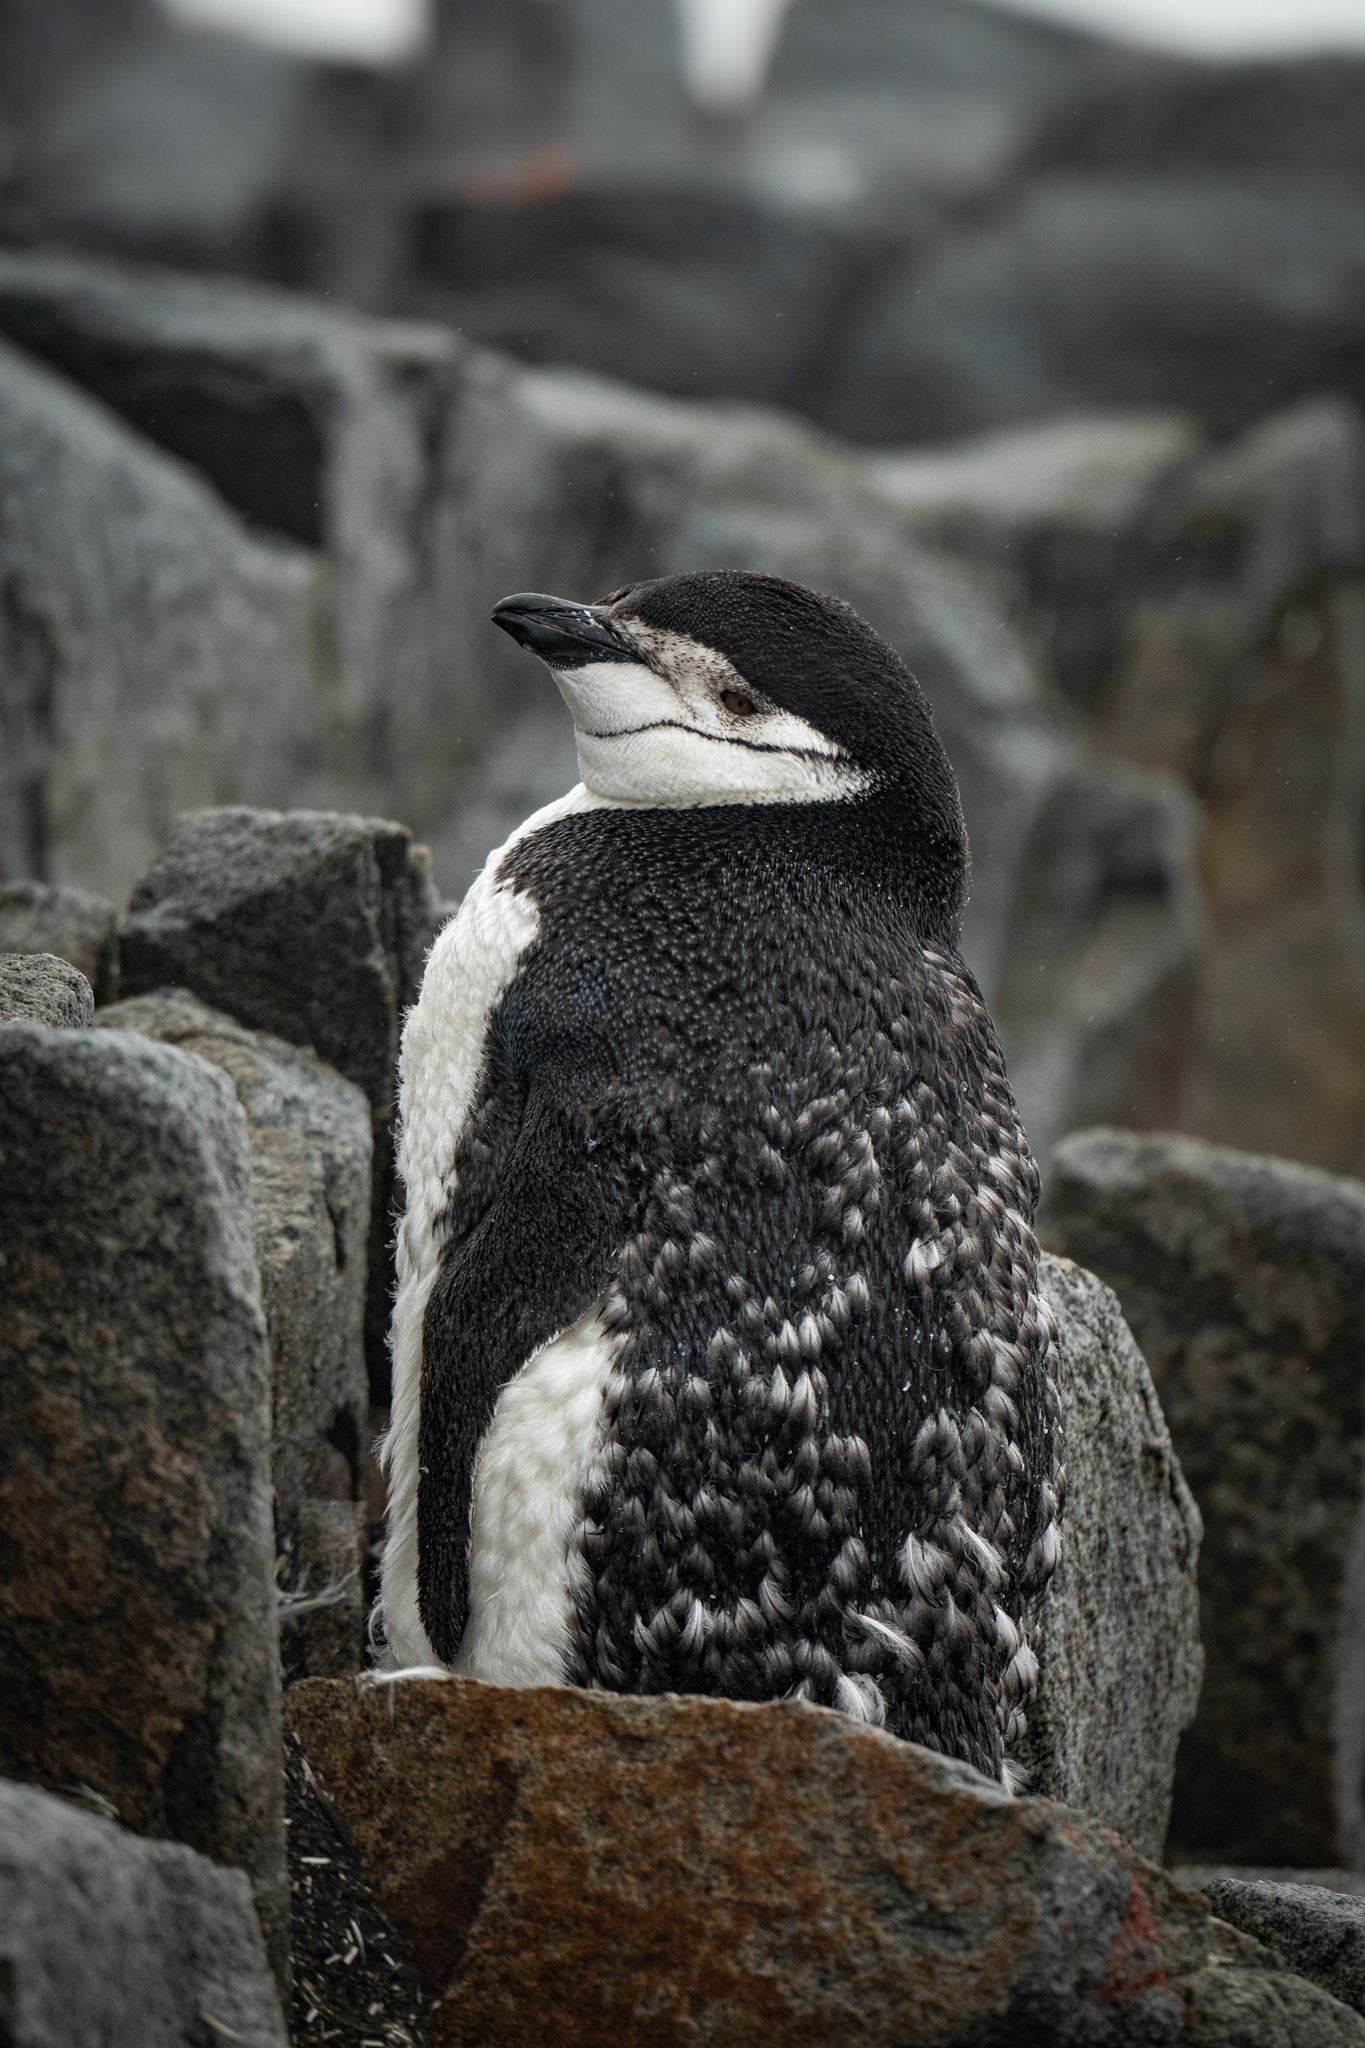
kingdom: Animalia
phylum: Chordata
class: Aves
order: Sphenisciformes
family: Spheniscidae
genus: Pygoscelis
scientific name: Pygoscelis antarcticus
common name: Chinstrap penguin
